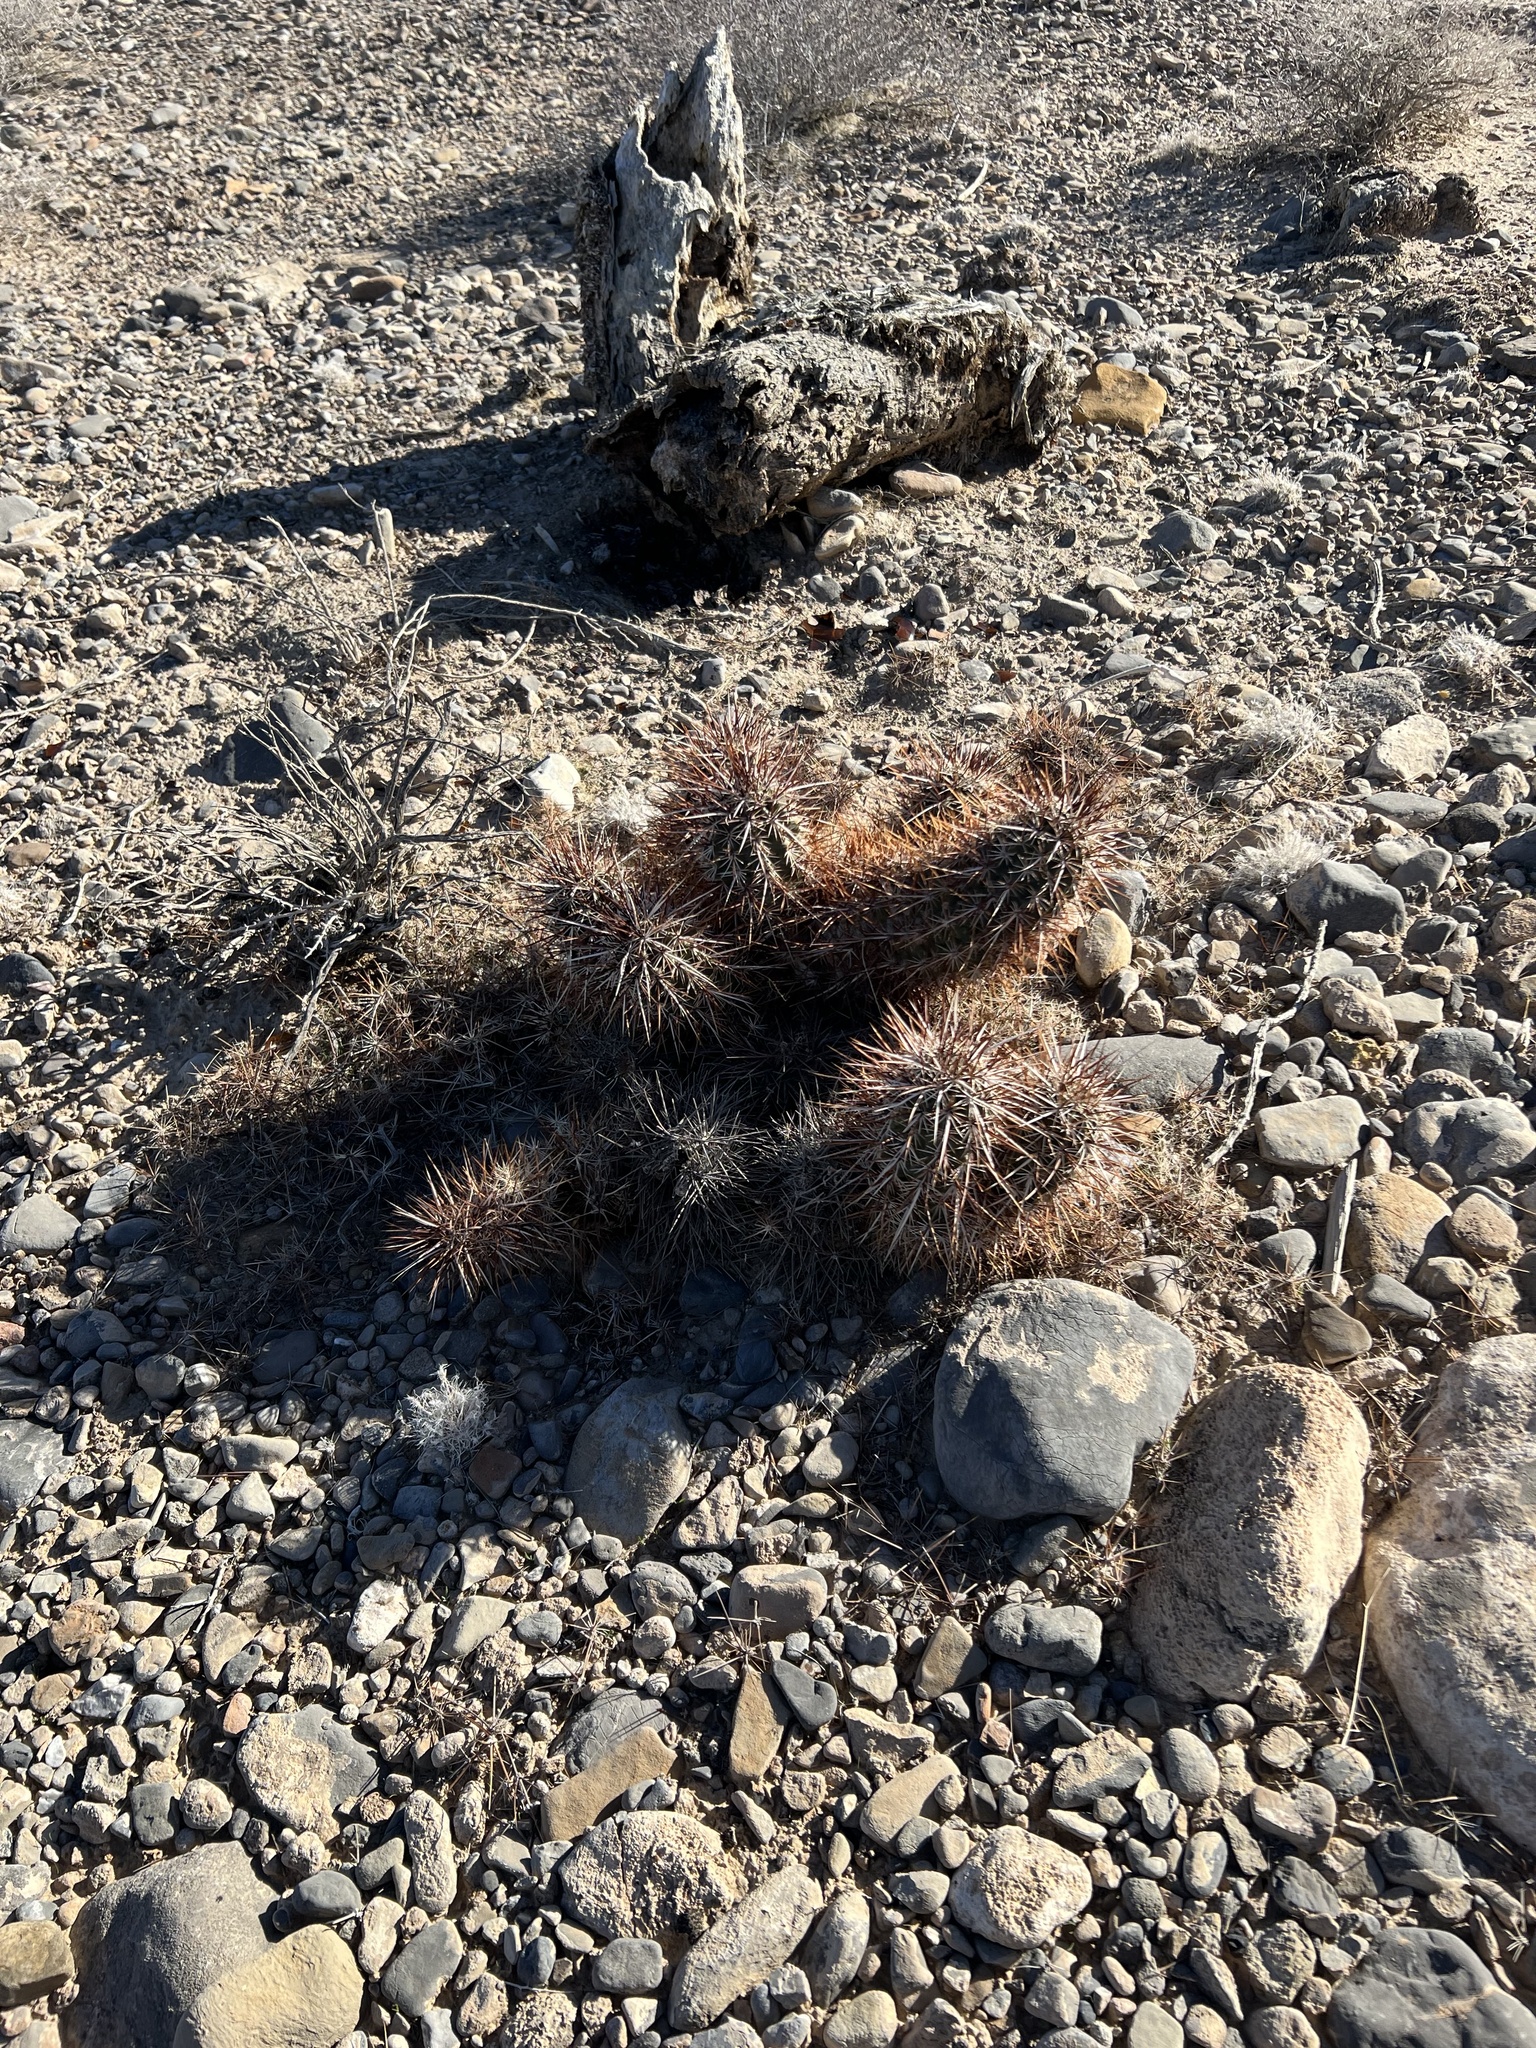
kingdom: Plantae
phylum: Tracheophyta
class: Magnoliopsida
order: Caryophyllales
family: Cactaceae
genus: Echinocereus
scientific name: Echinocereus engelmannii
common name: Engelmann's hedgehog cactus
